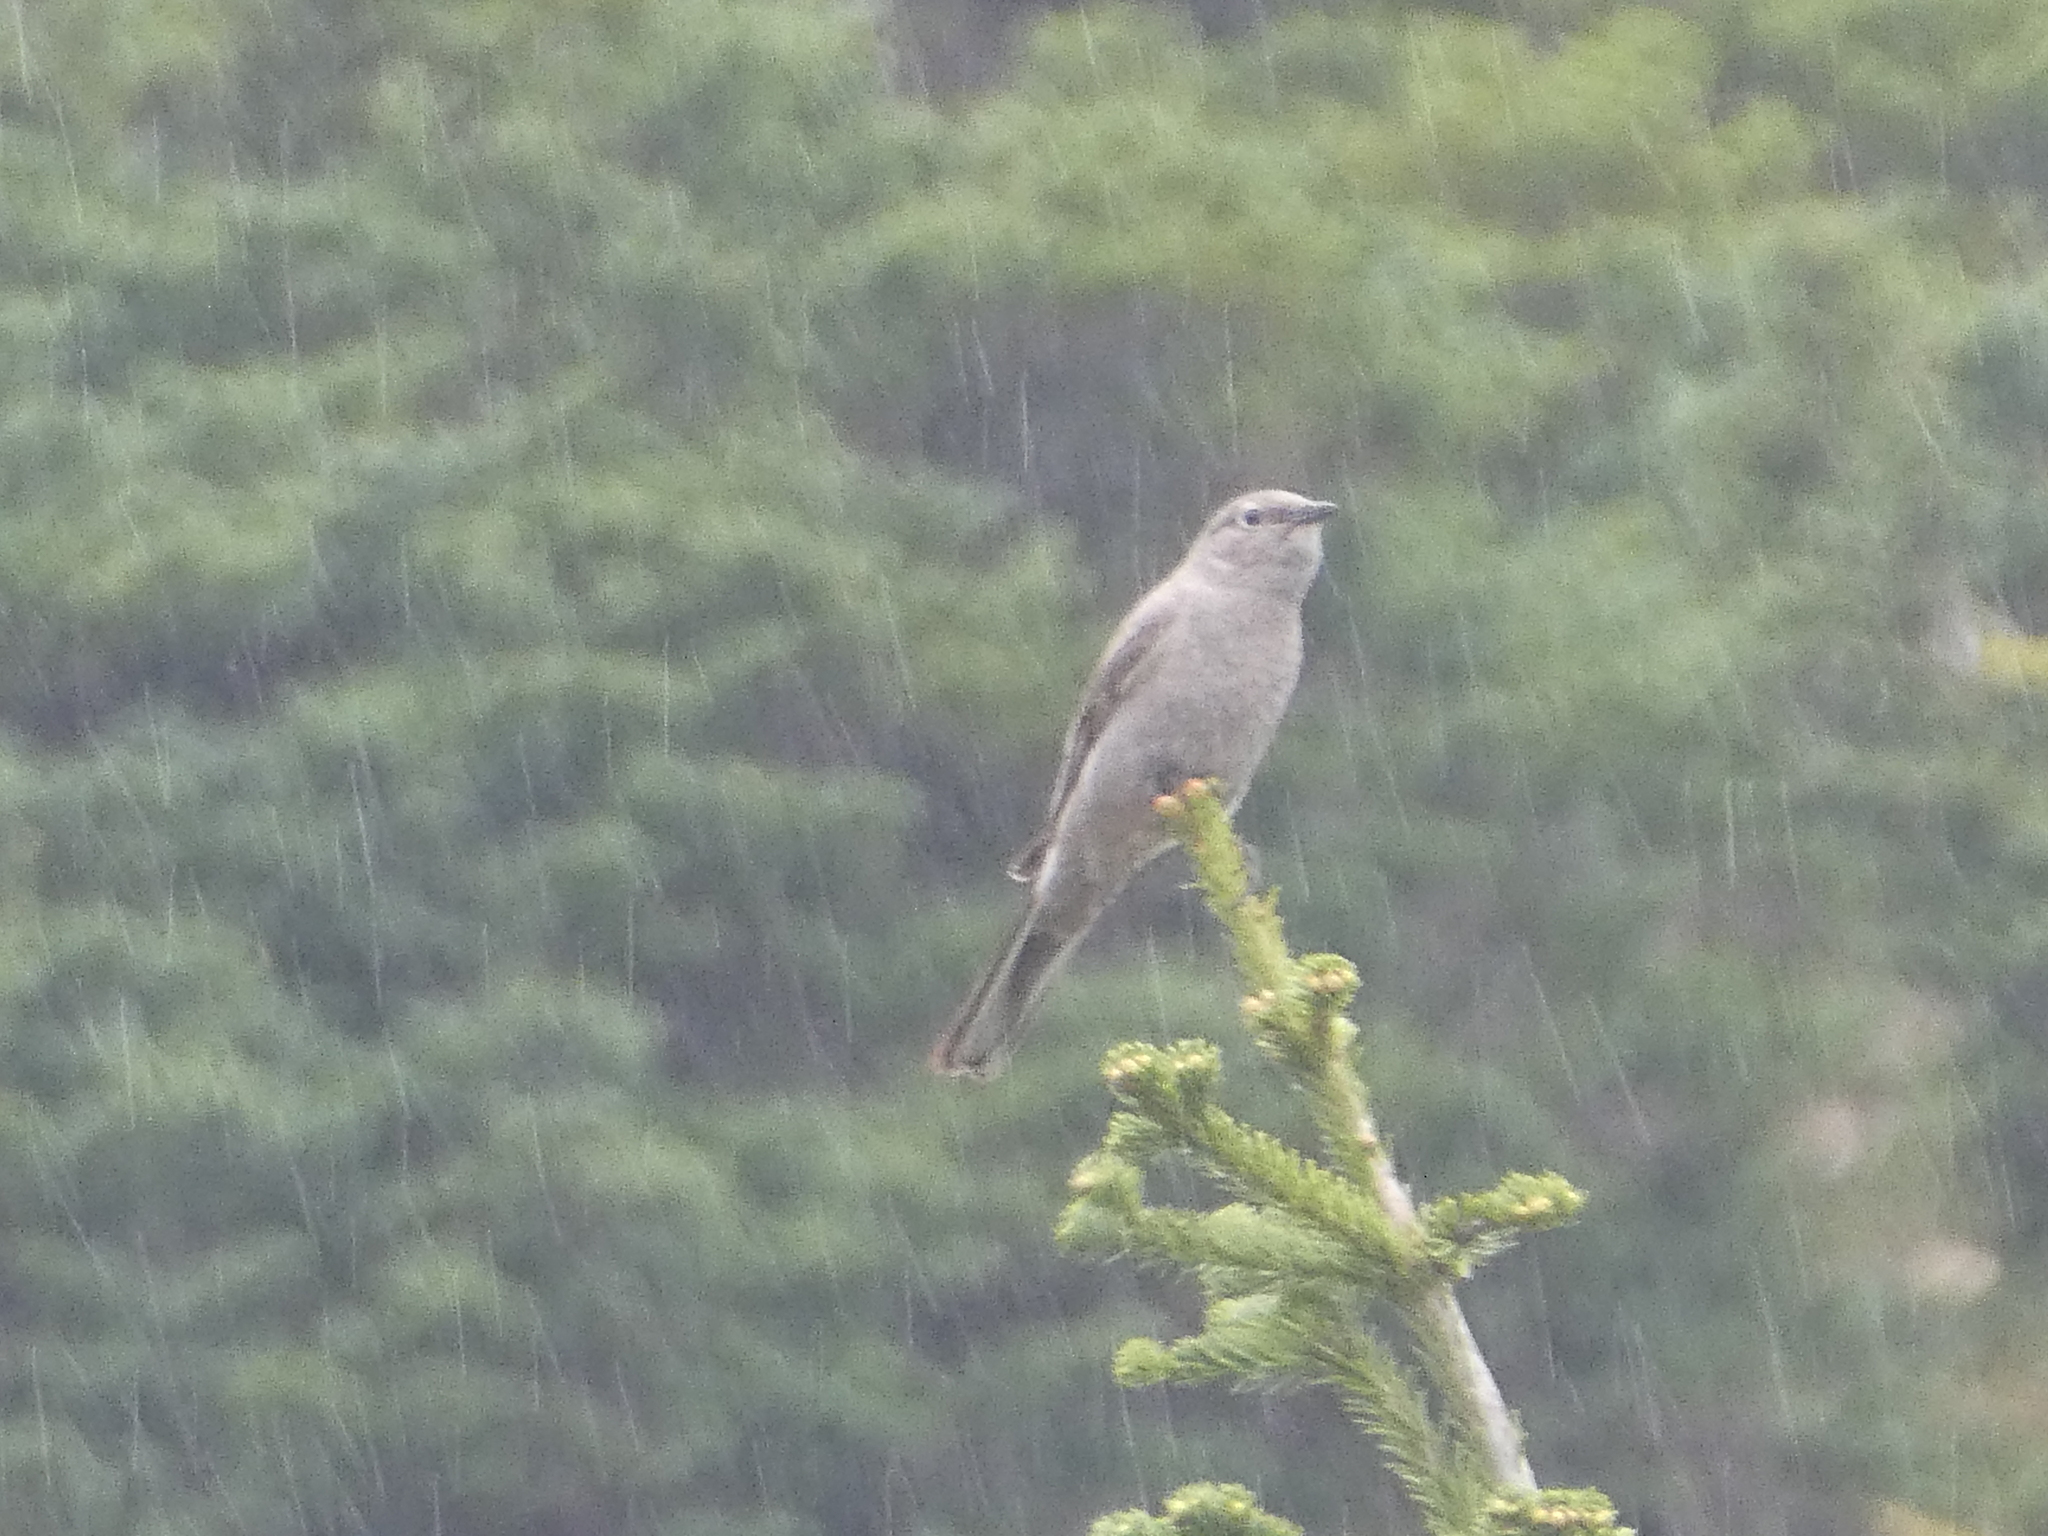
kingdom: Animalia
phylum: Chordata
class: Aves
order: Passeriformes
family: Turdidae
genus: Myadestes
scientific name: Myadestes townsendi
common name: Townsend's solitaire
